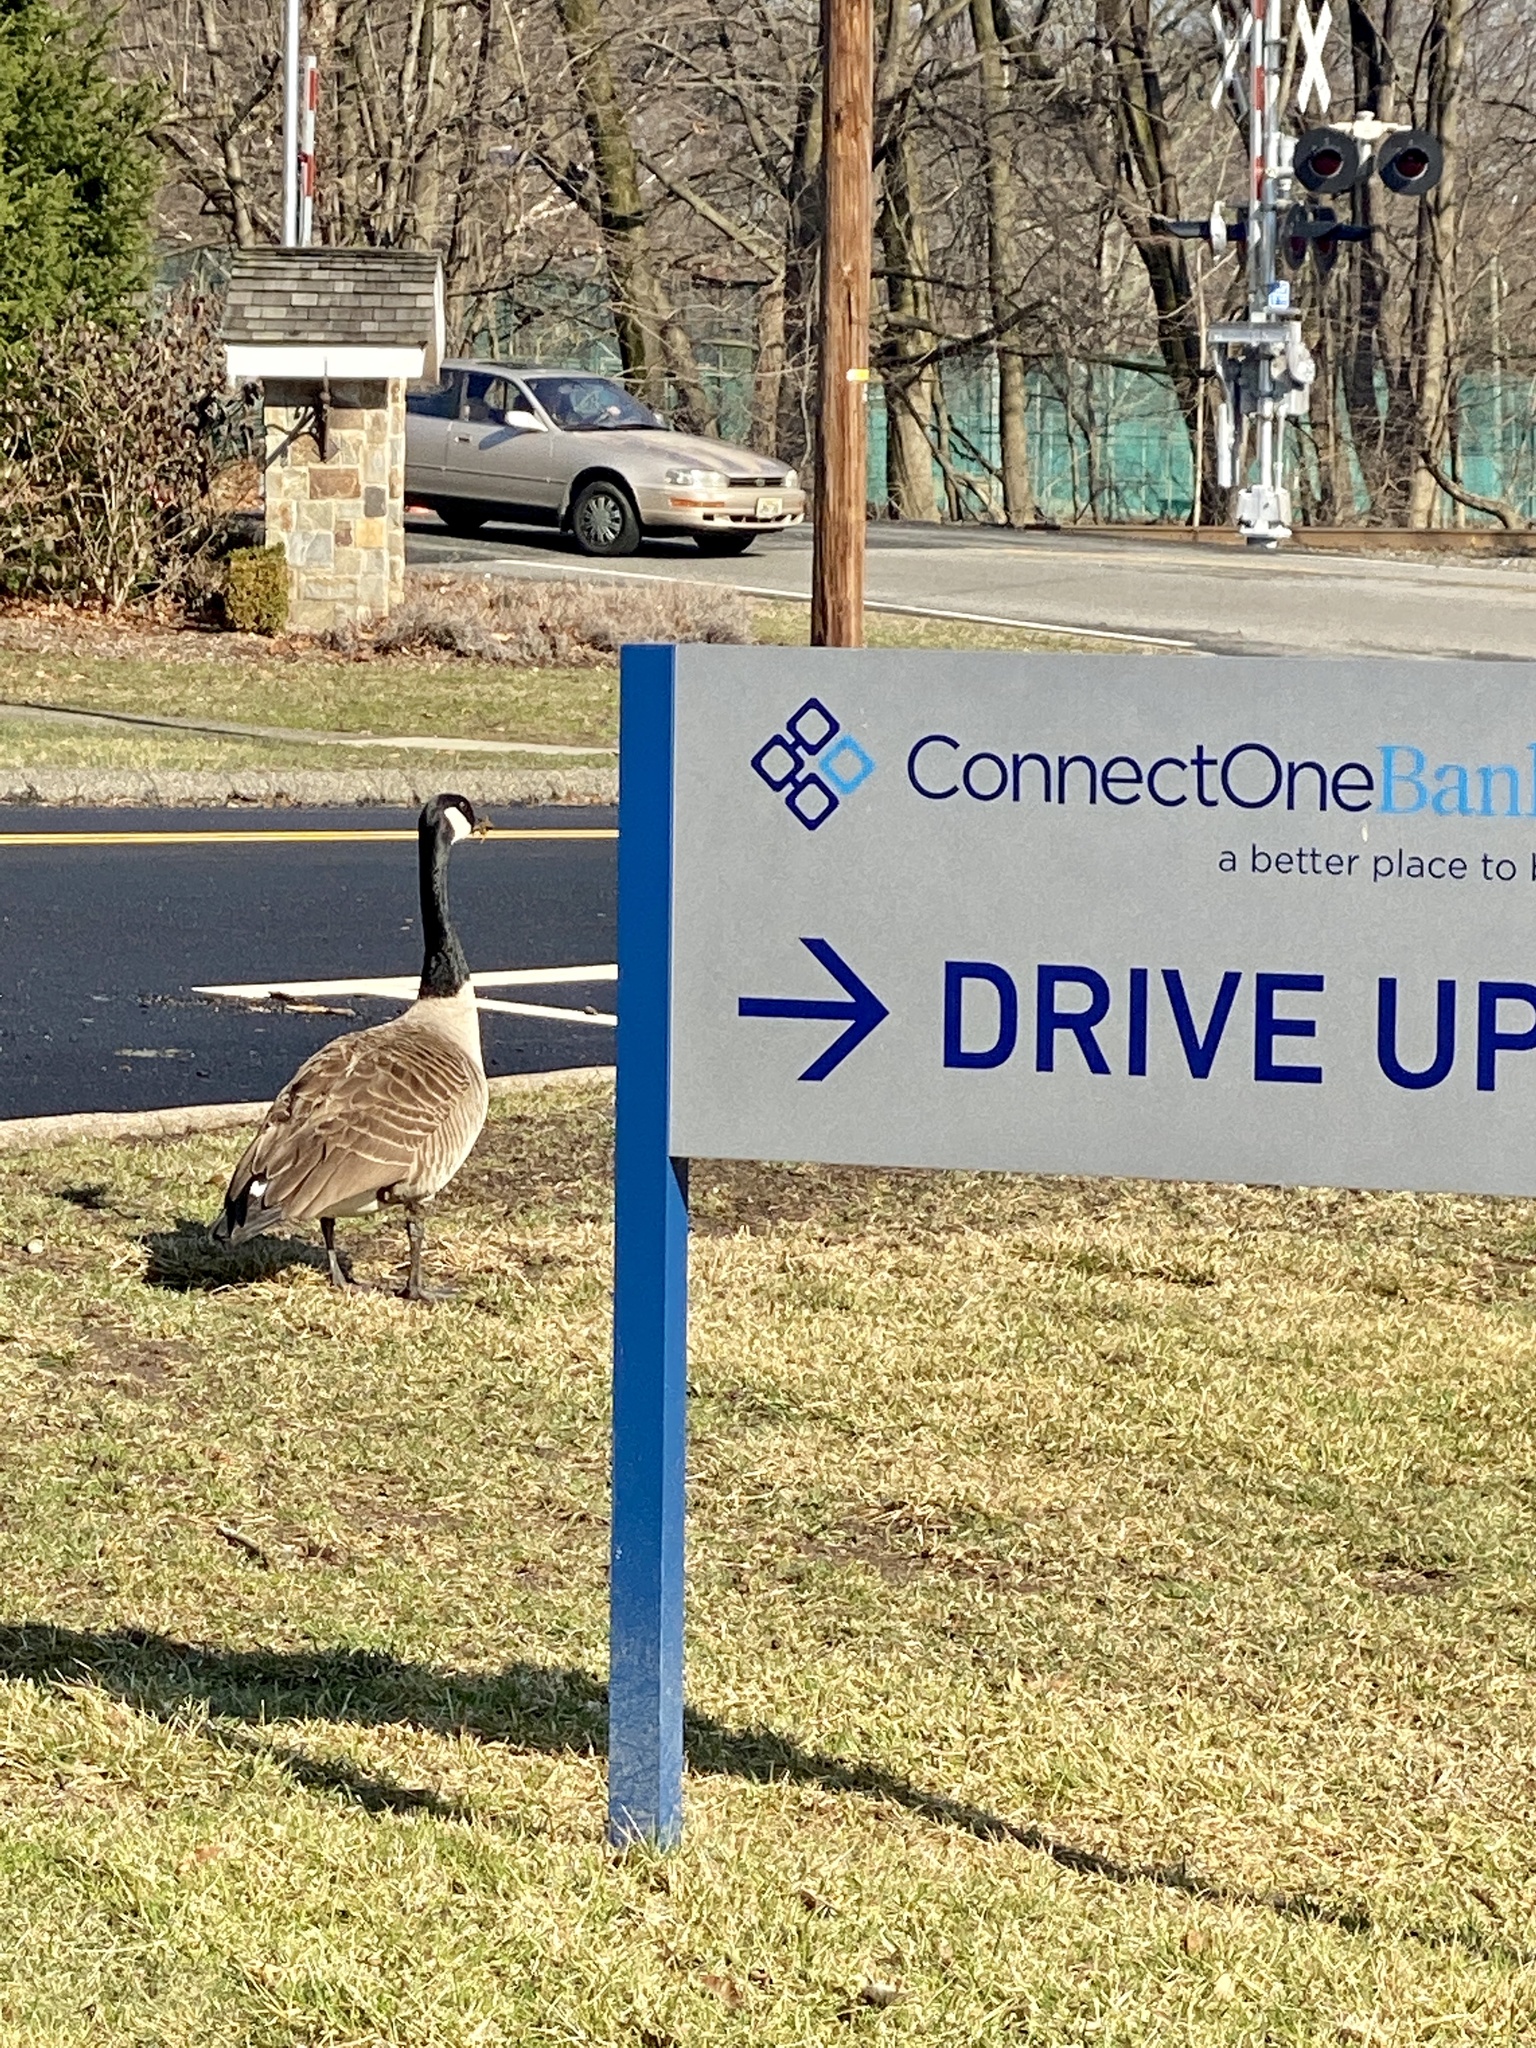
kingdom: Animalia
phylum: Chordata
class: Aves
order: Anseriformes
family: Anatidae
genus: Branta
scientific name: Branta canadensis
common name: Canada goose
